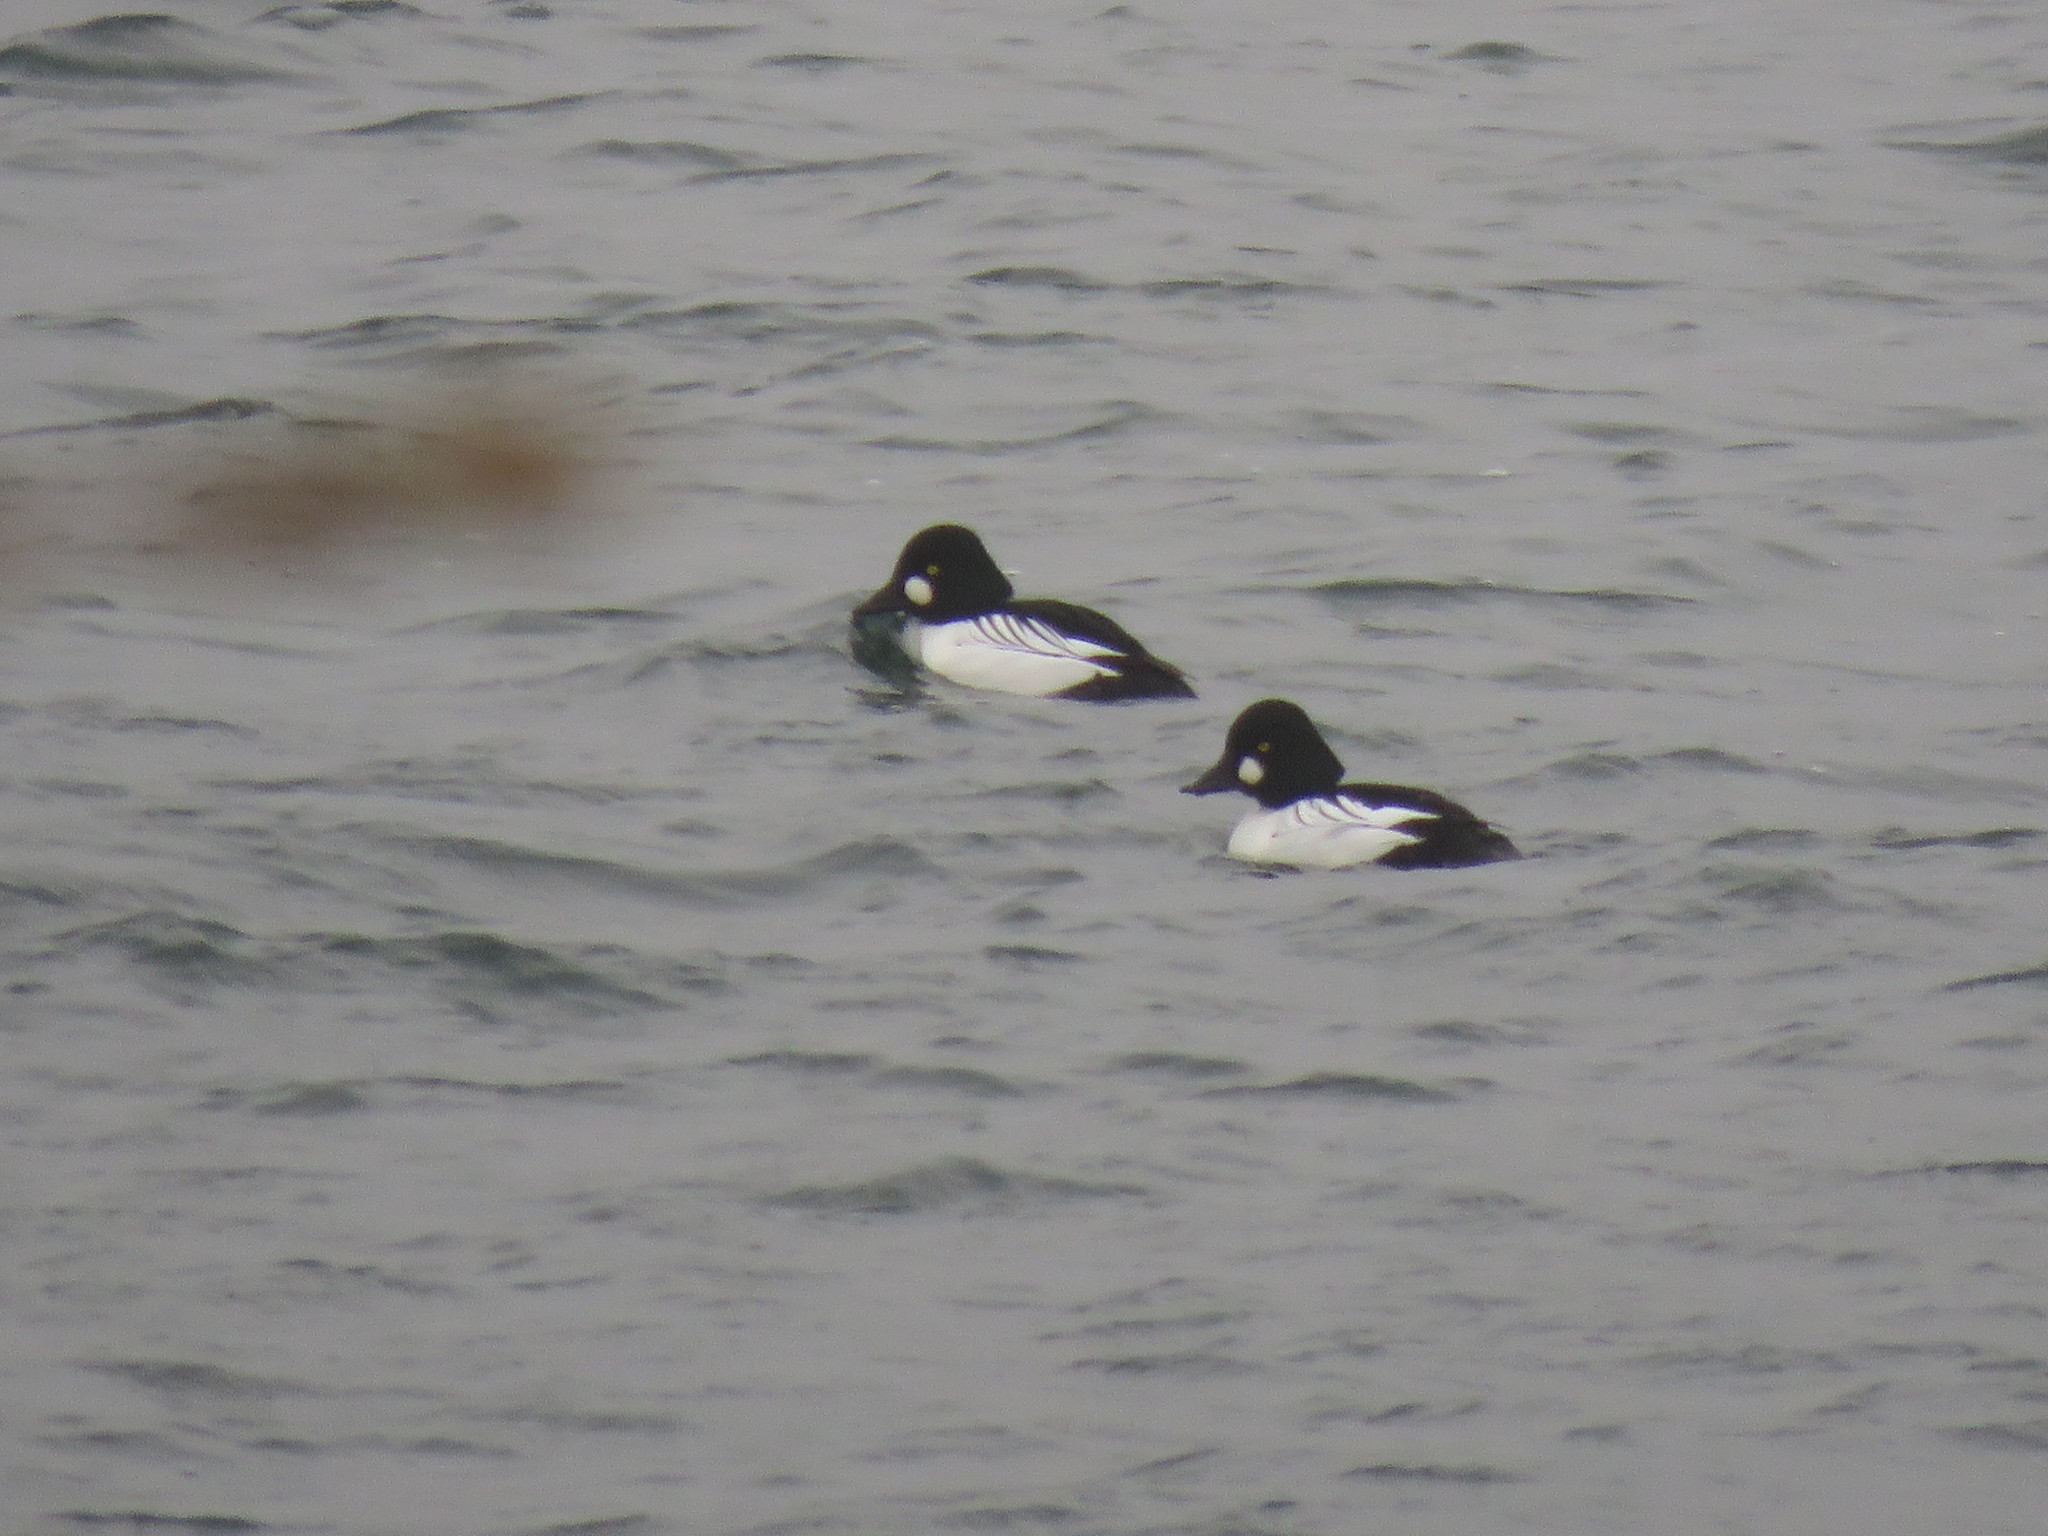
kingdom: Animalia
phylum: Chordata
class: Aves
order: Anseriformes
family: Anatidae
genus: Bucephala
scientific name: Bucephala clangula
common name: Common goldeneye
